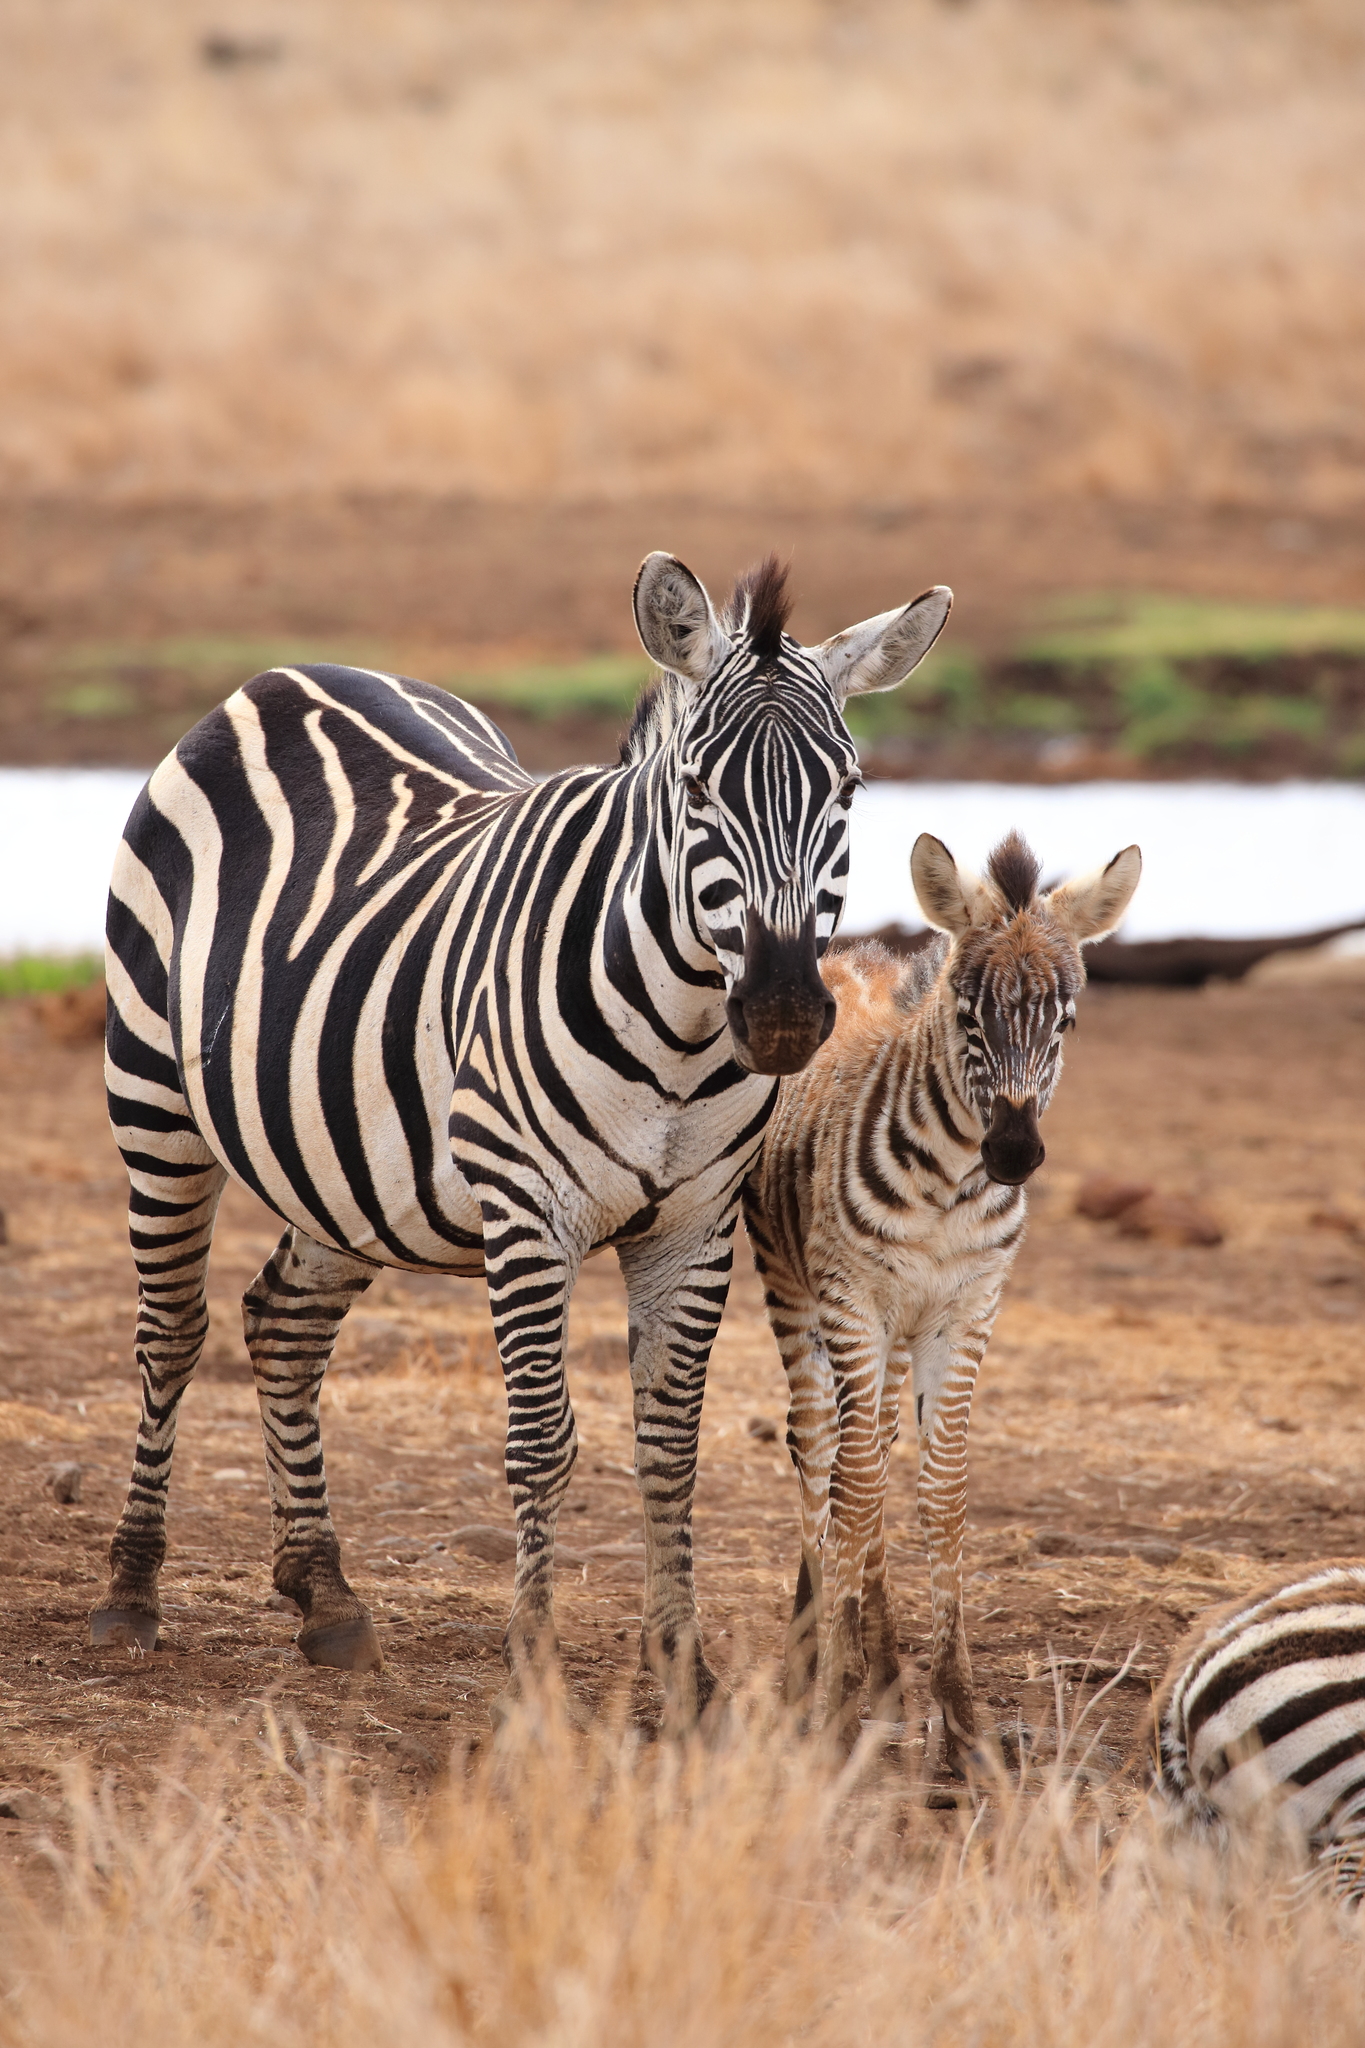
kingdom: Animalia
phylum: Chordata
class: Mammalia
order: Perissodactyla
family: Equidae
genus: Equus
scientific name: Equus quagga
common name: Plains zebra
